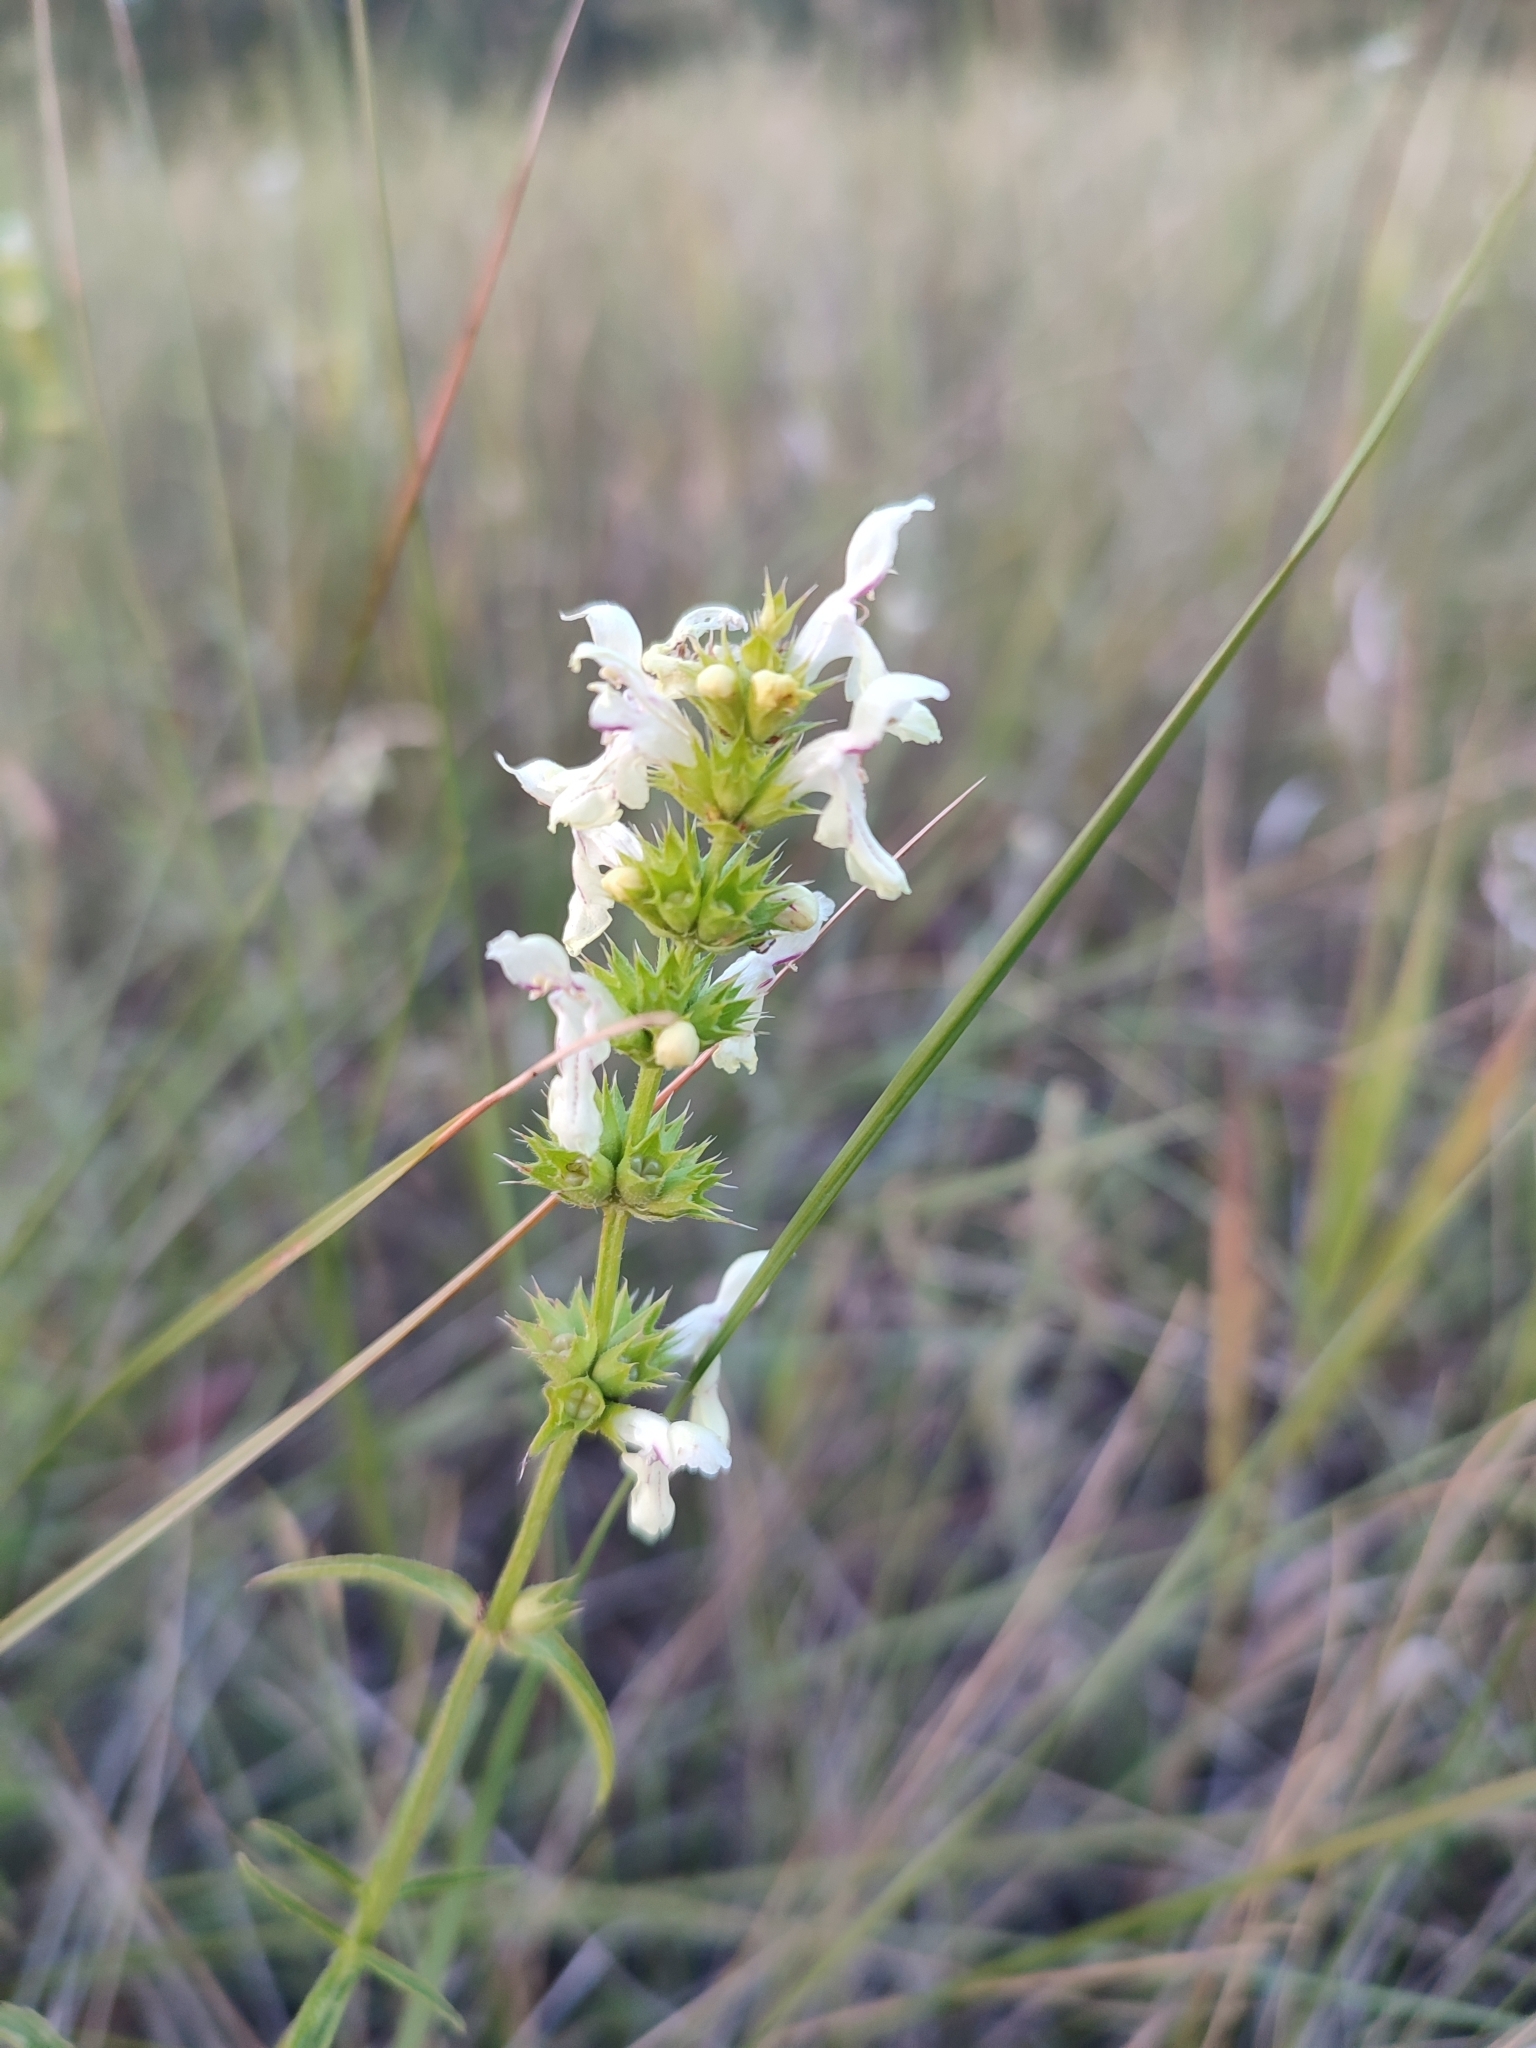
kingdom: Plantae
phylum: Tracheophyta
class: Magnoliopsida
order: Lamiales
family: Lamiaceae
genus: Stachys
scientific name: Stachys recta
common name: Perennial yellow-woundwort
